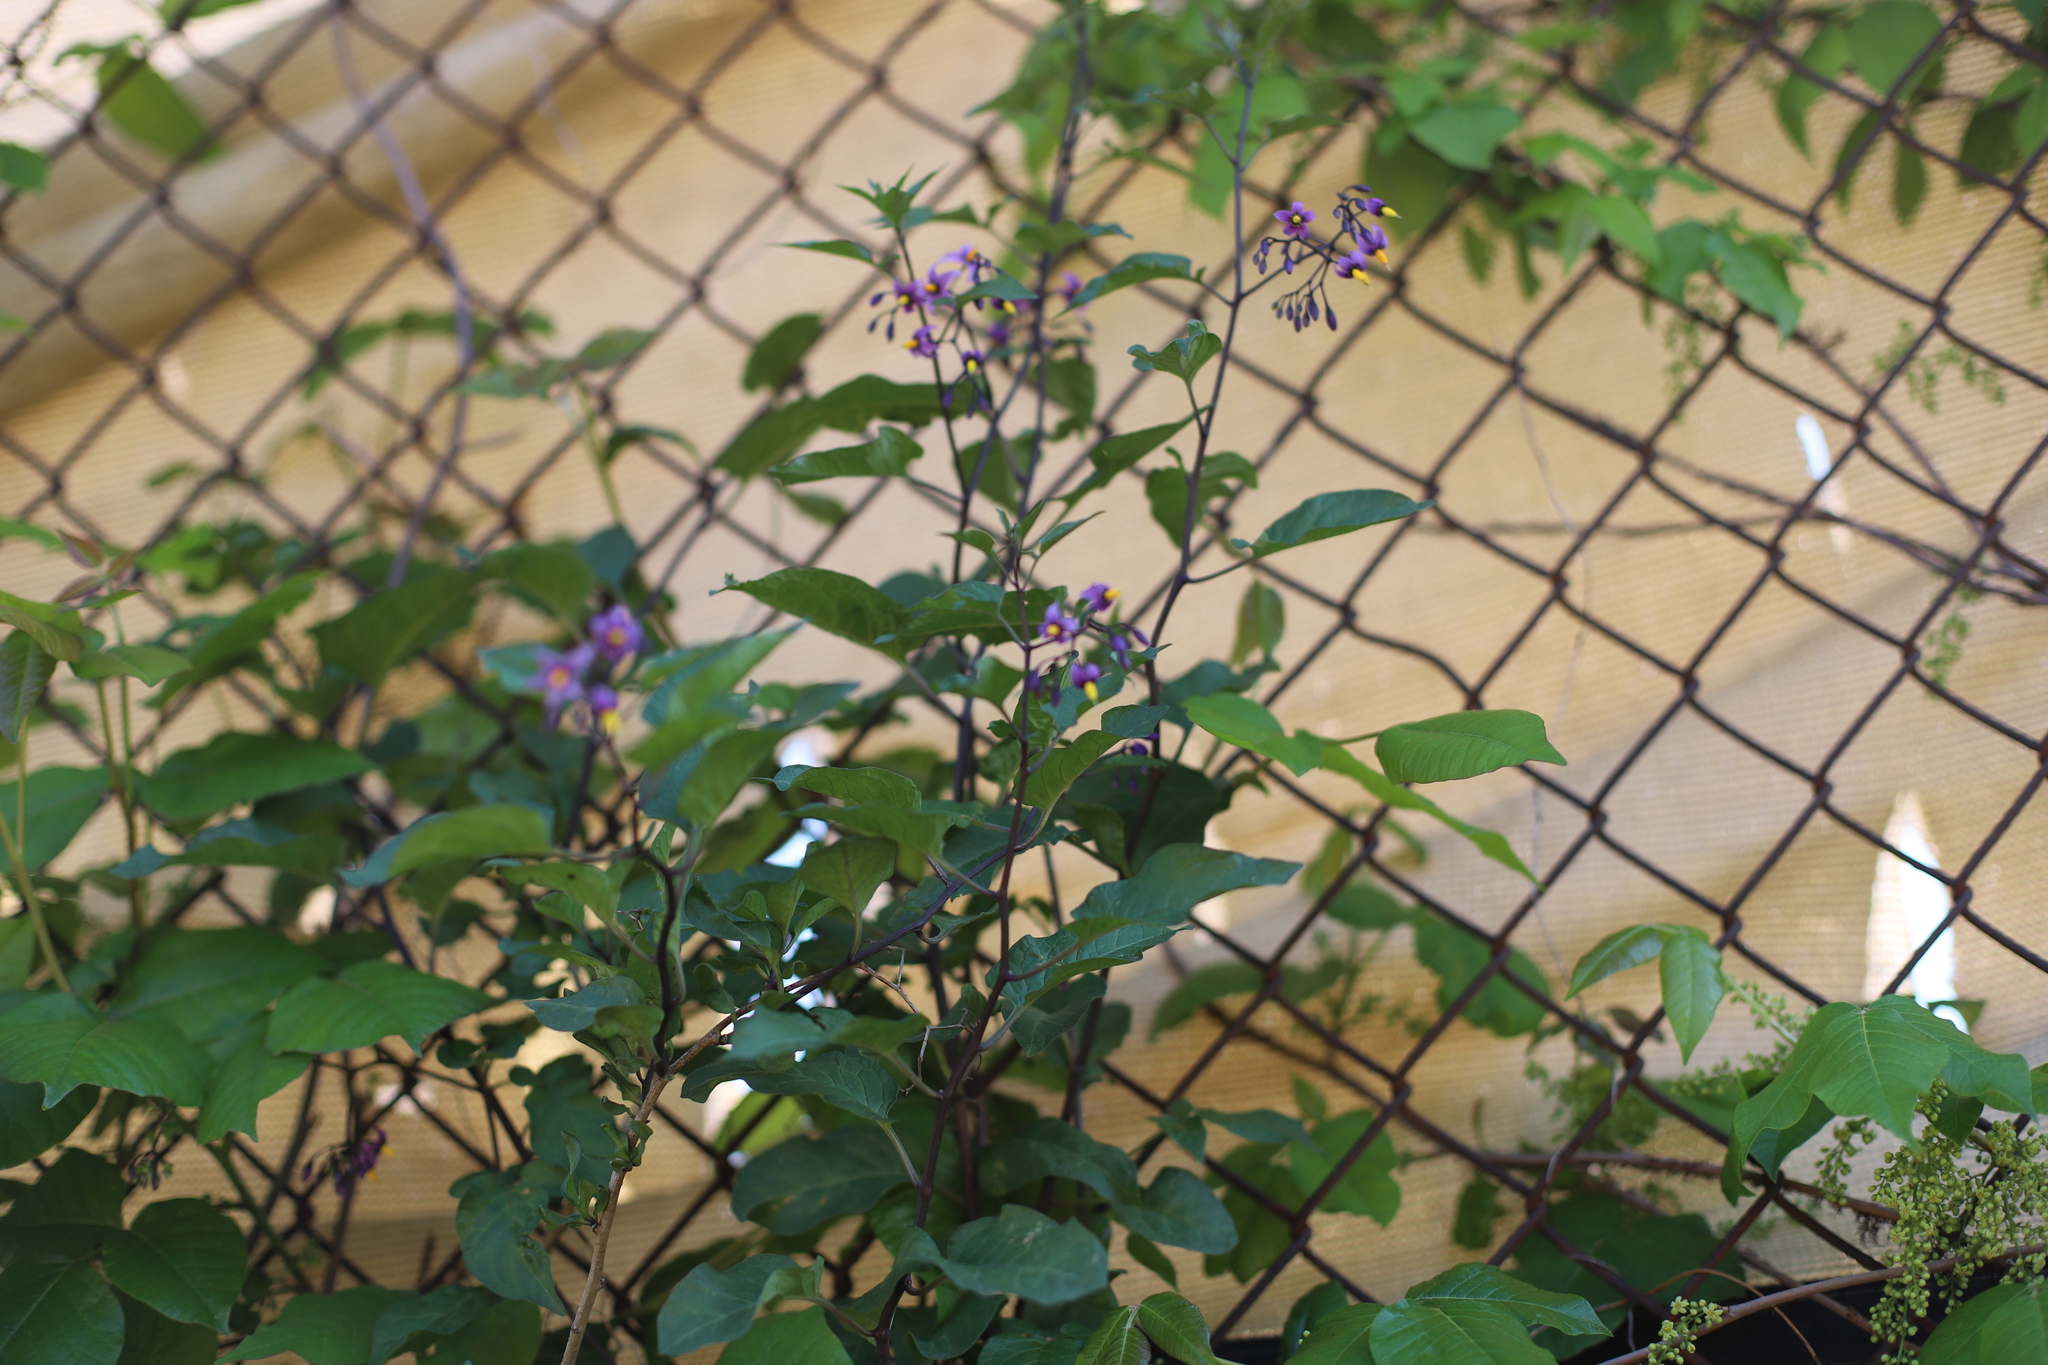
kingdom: Plantae
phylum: Tracheophyta
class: Magnoliopsida
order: Solanales
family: Solanaceae
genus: Solanum
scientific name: Solanum dulcamara
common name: Climbing nightshade
